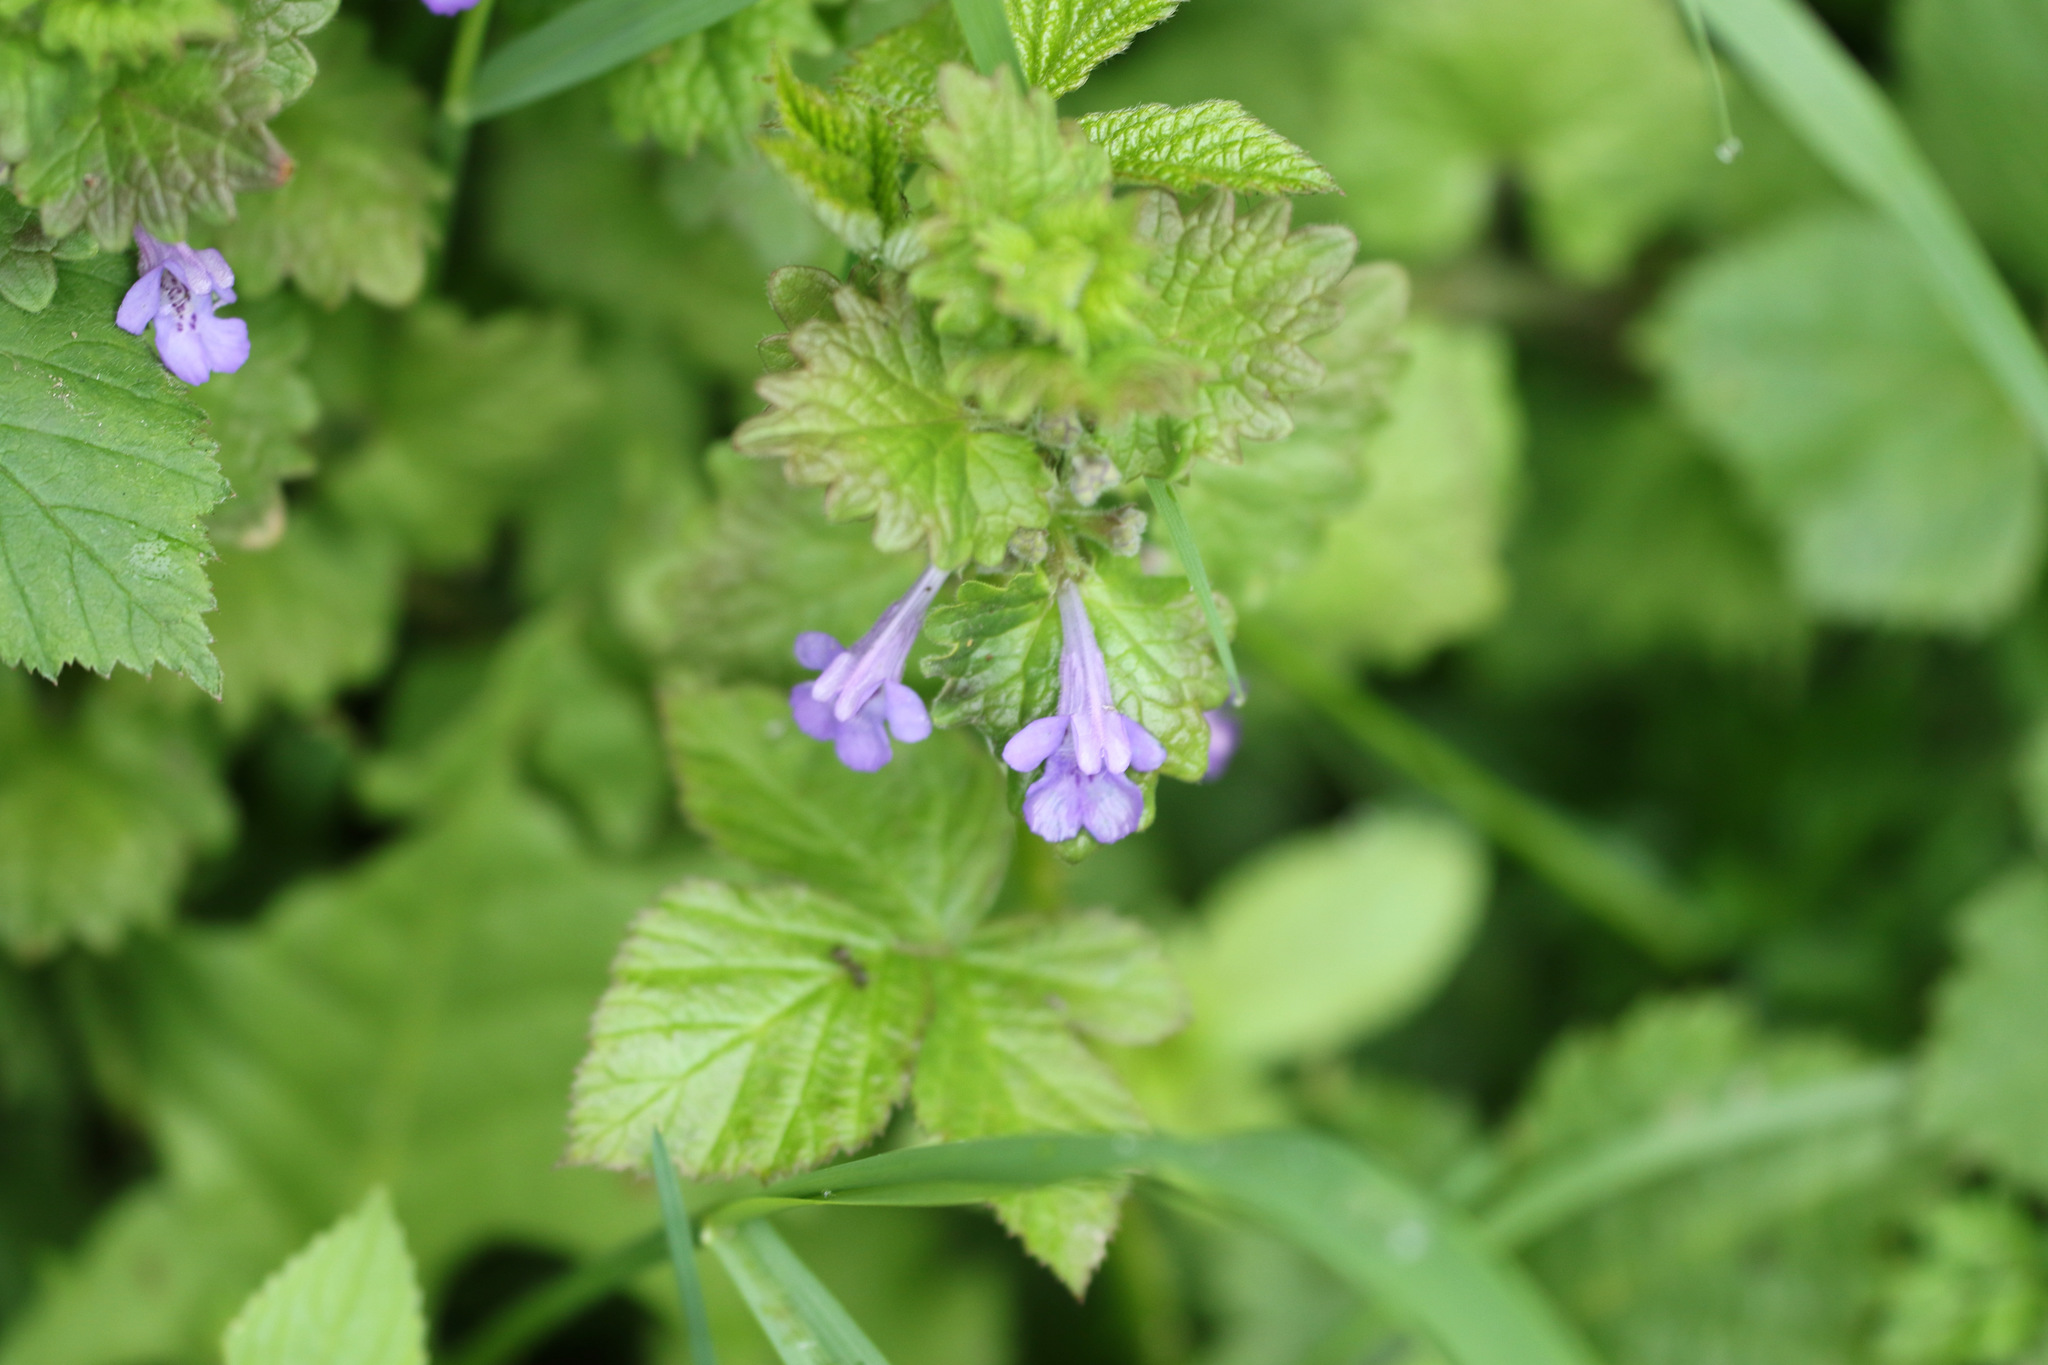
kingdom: Plantae
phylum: Tracheophyta
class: Magnoliopsida
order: Lamiales
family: Lamiaceae
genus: Glechoma
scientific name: Glechoma hederacea
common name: Ground ivy
